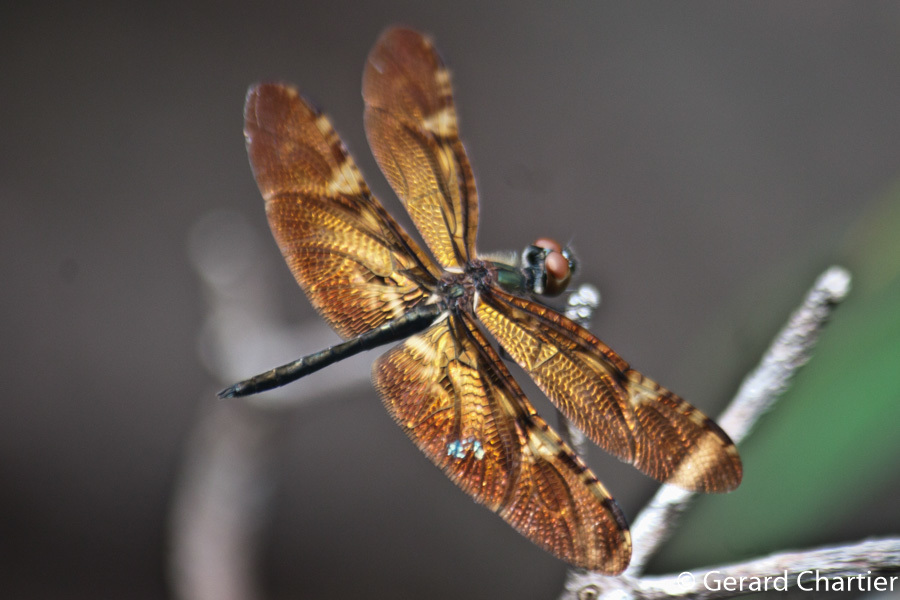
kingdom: Animalia
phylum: Arthropoda
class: Insecta
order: Odonata
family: Libellulidae
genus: Rhyothemis
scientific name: Rhyothemis obsolescens
